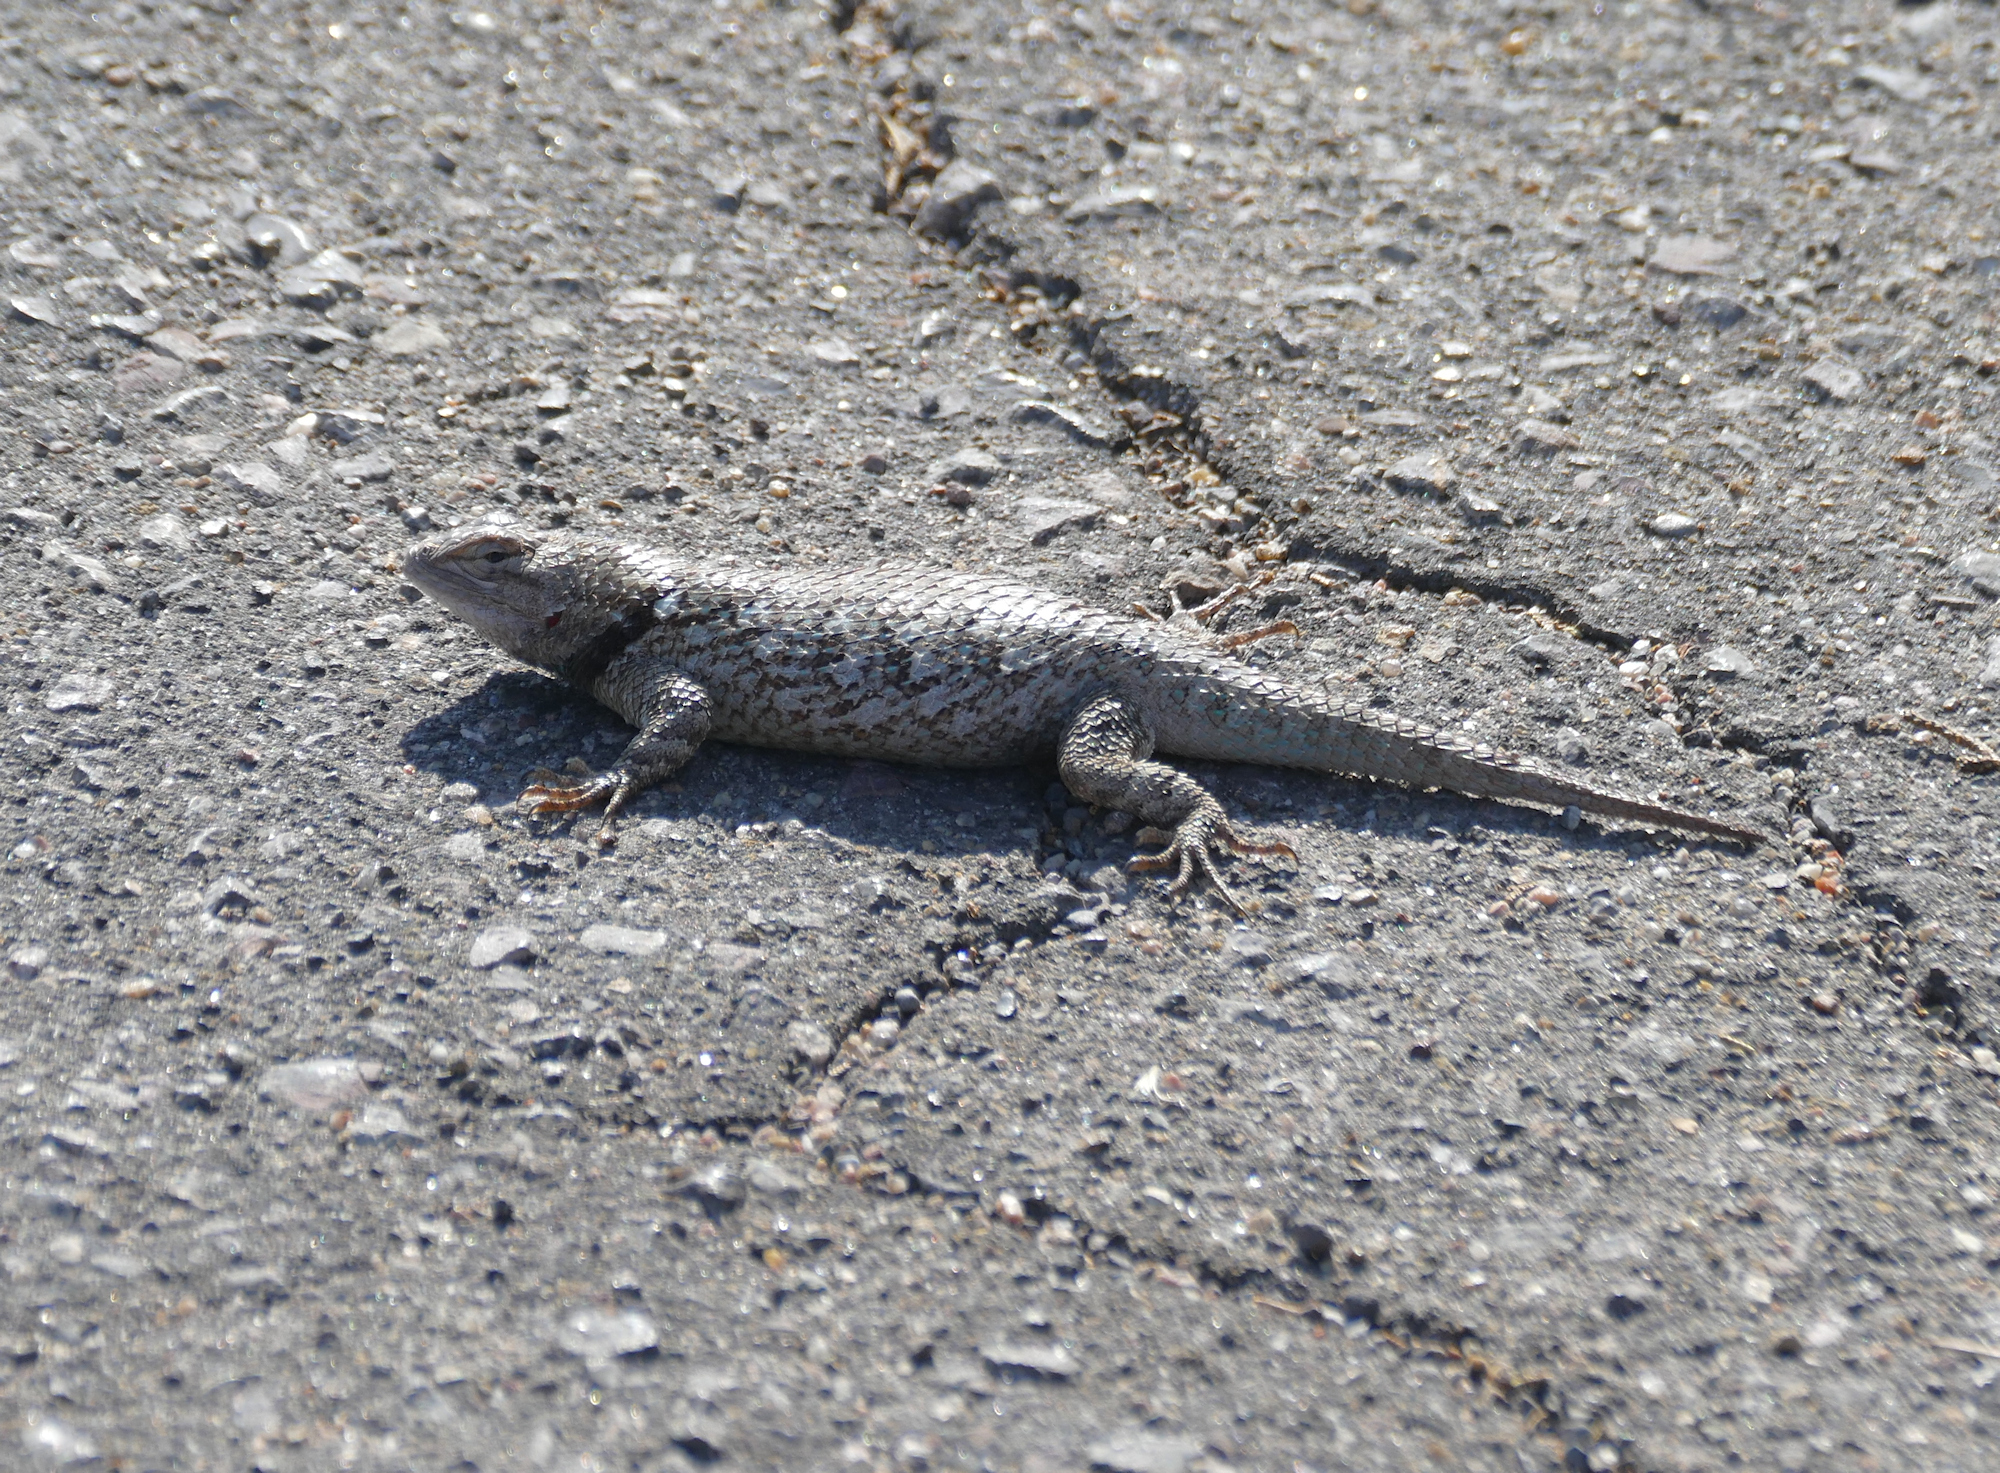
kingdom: Animalia
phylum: Chordata
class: Squamata
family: Phrynosomatidae
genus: Sceloporus
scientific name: Sceloporus clarkii
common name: Clark's spiny lizard
